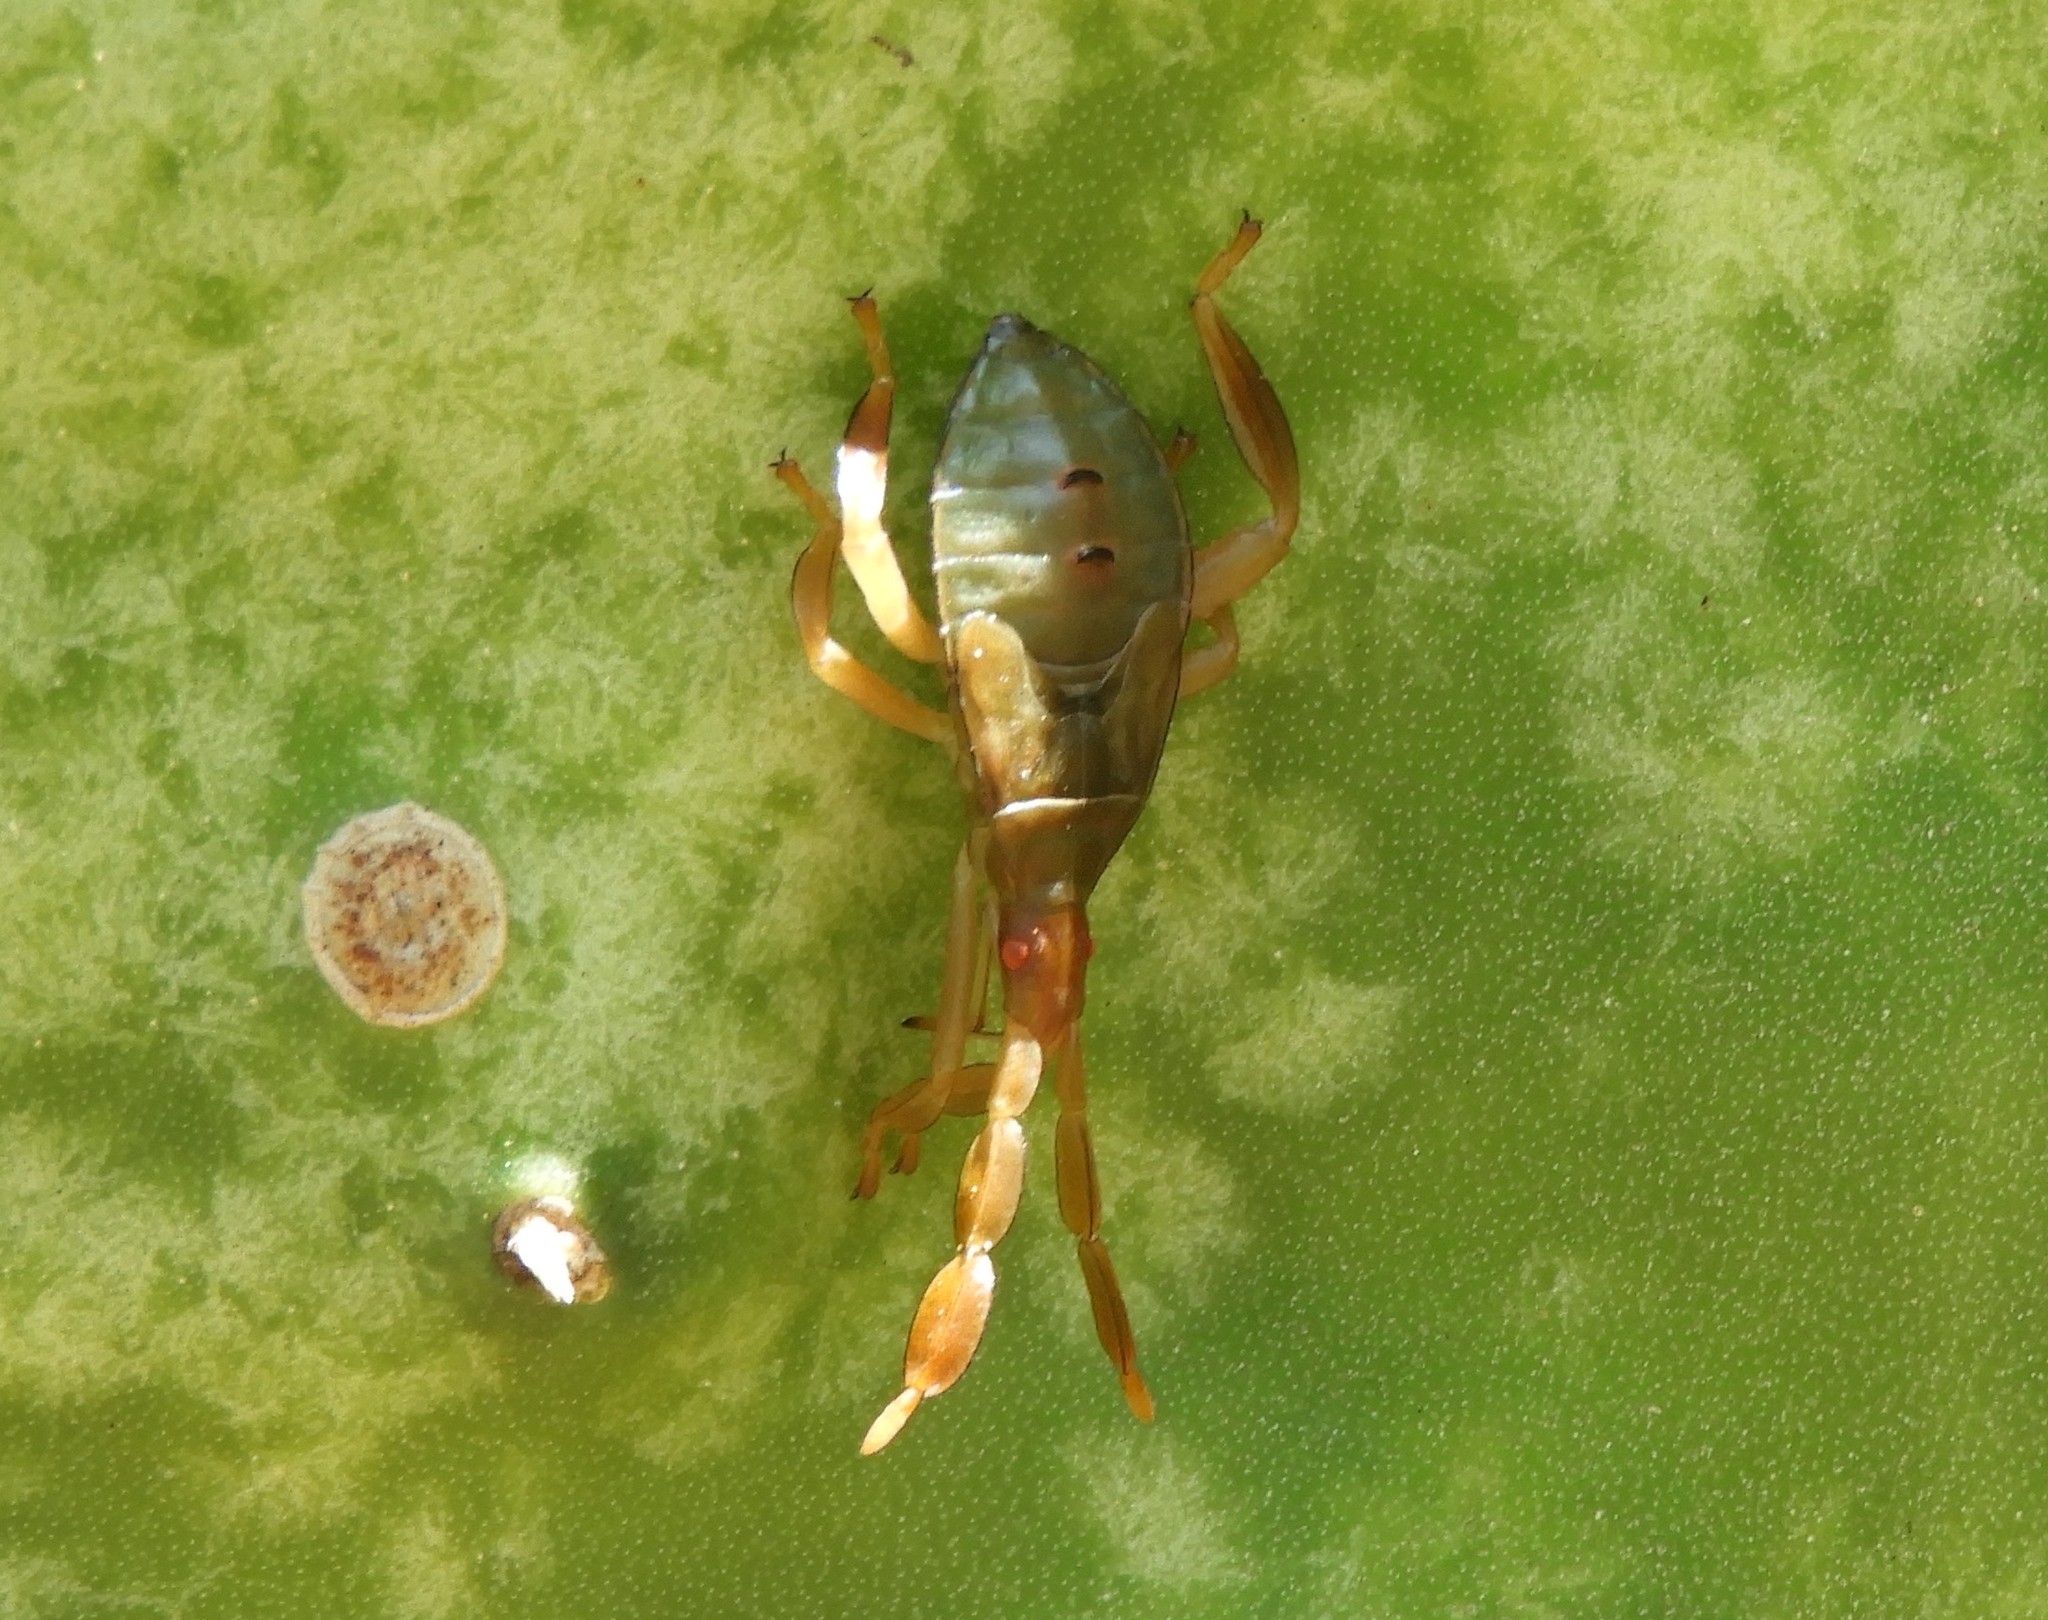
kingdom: Animalia
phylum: Arthropoda
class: Insecta
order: Hemiptera
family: Coreidae
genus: Chelinidea
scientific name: Chelinidea
